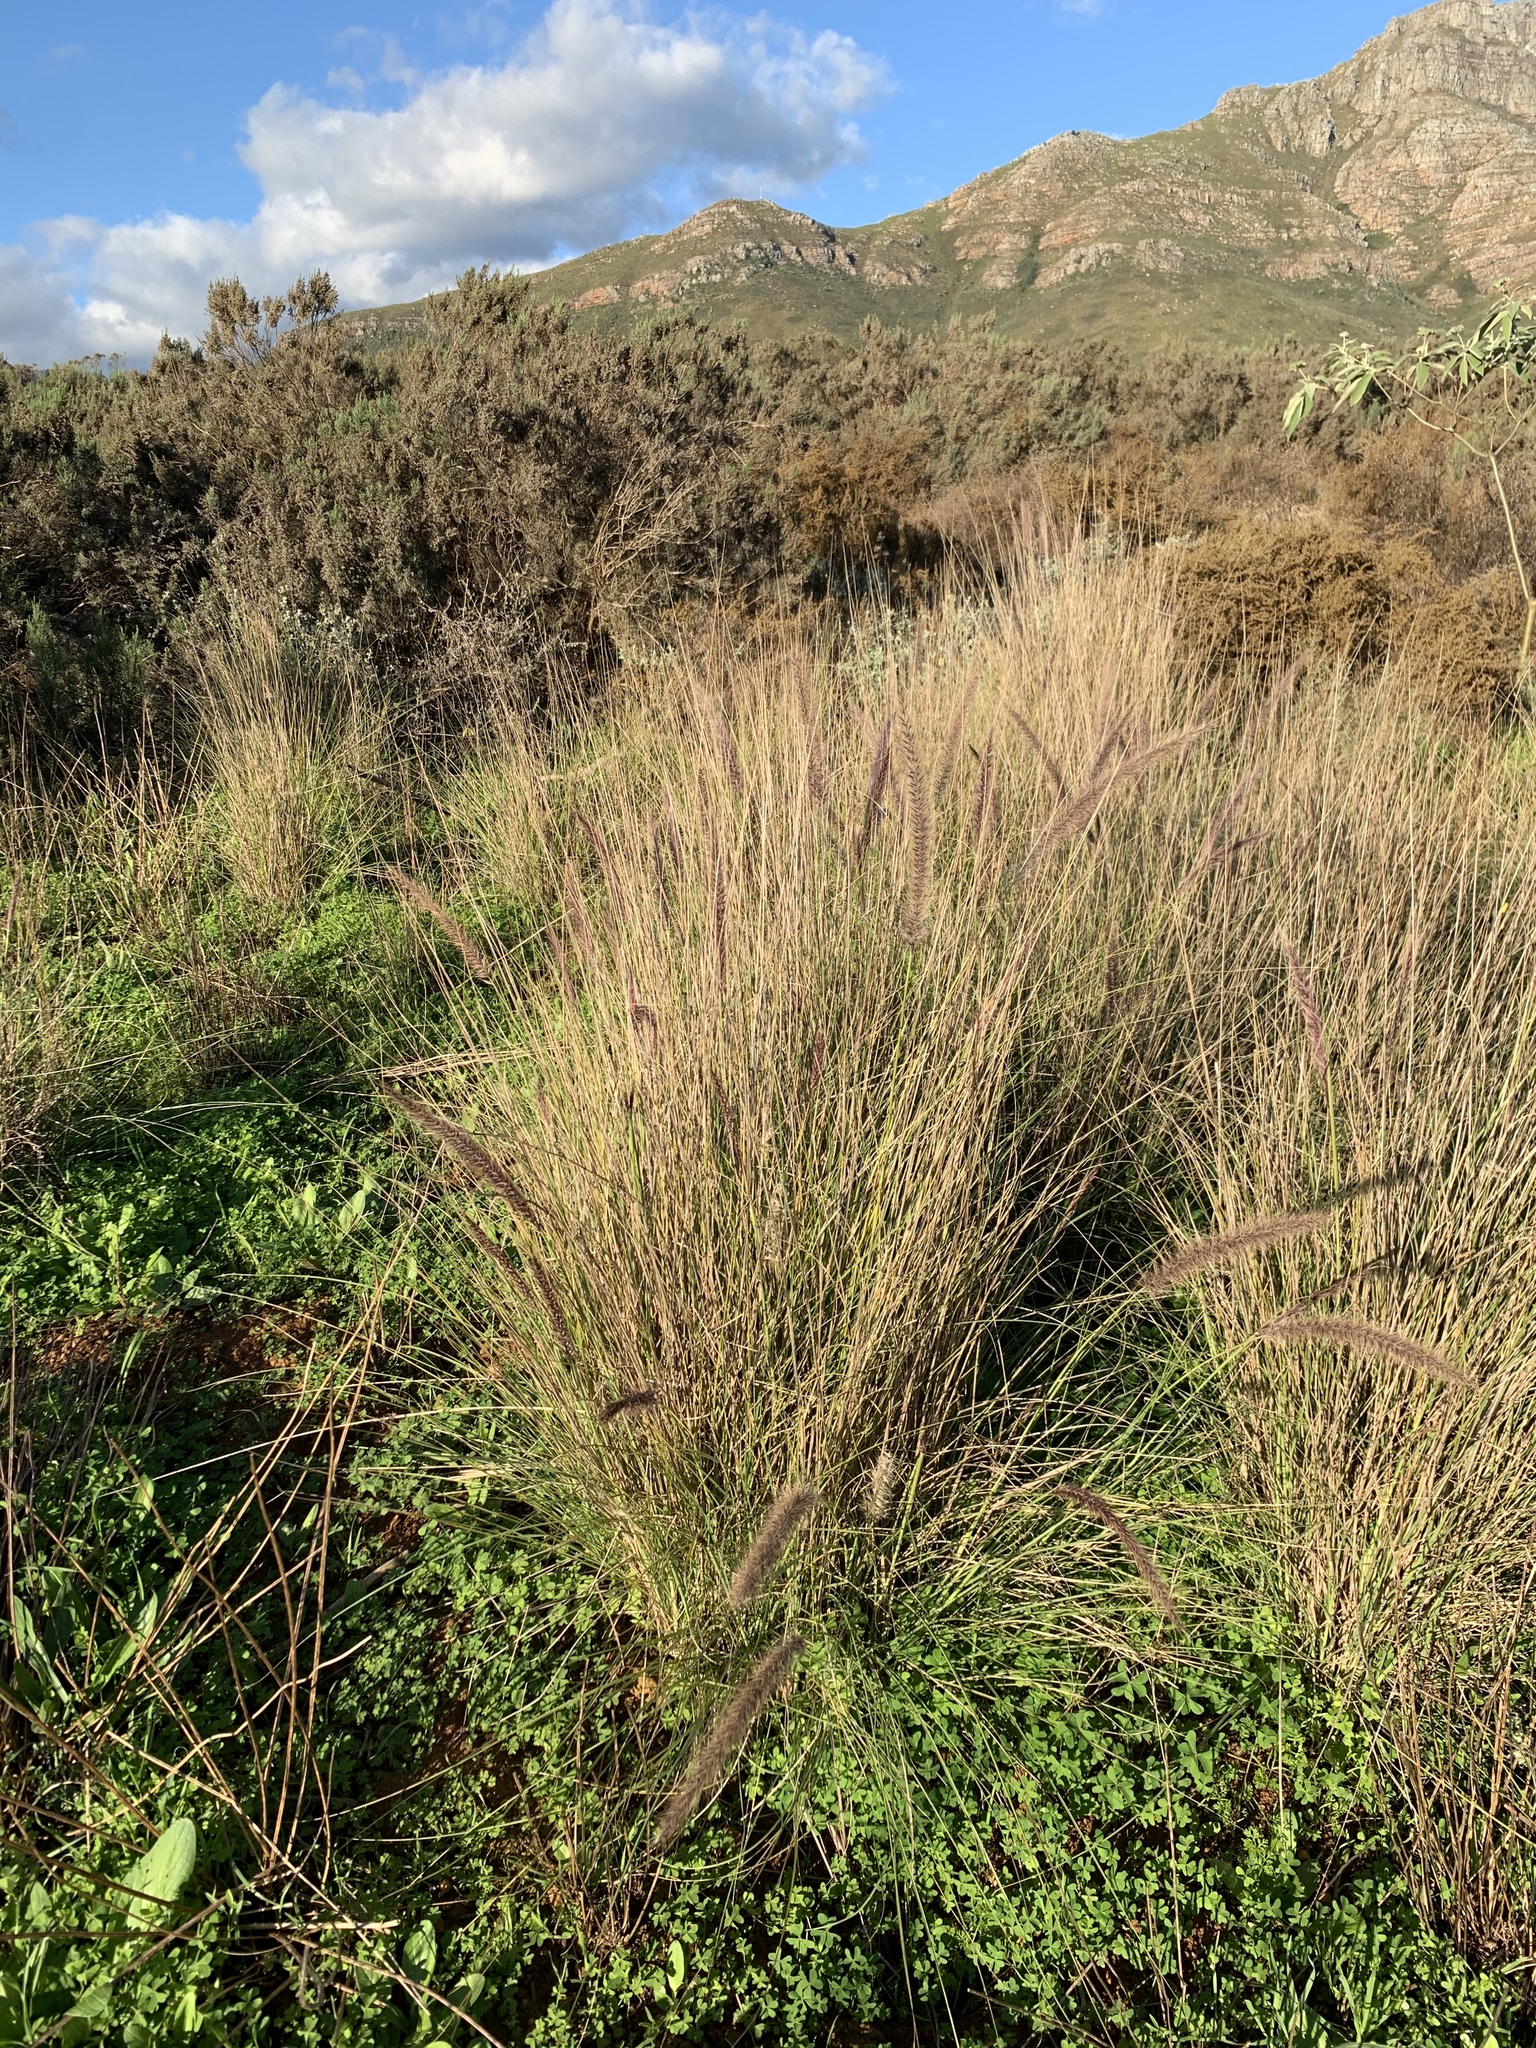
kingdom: Plantae
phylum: Tracheophyta
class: Liliopsida
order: Poales
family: Poaceae
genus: Cenchrus
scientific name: Cenchrus setaceus
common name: Crimson fountaingrass
